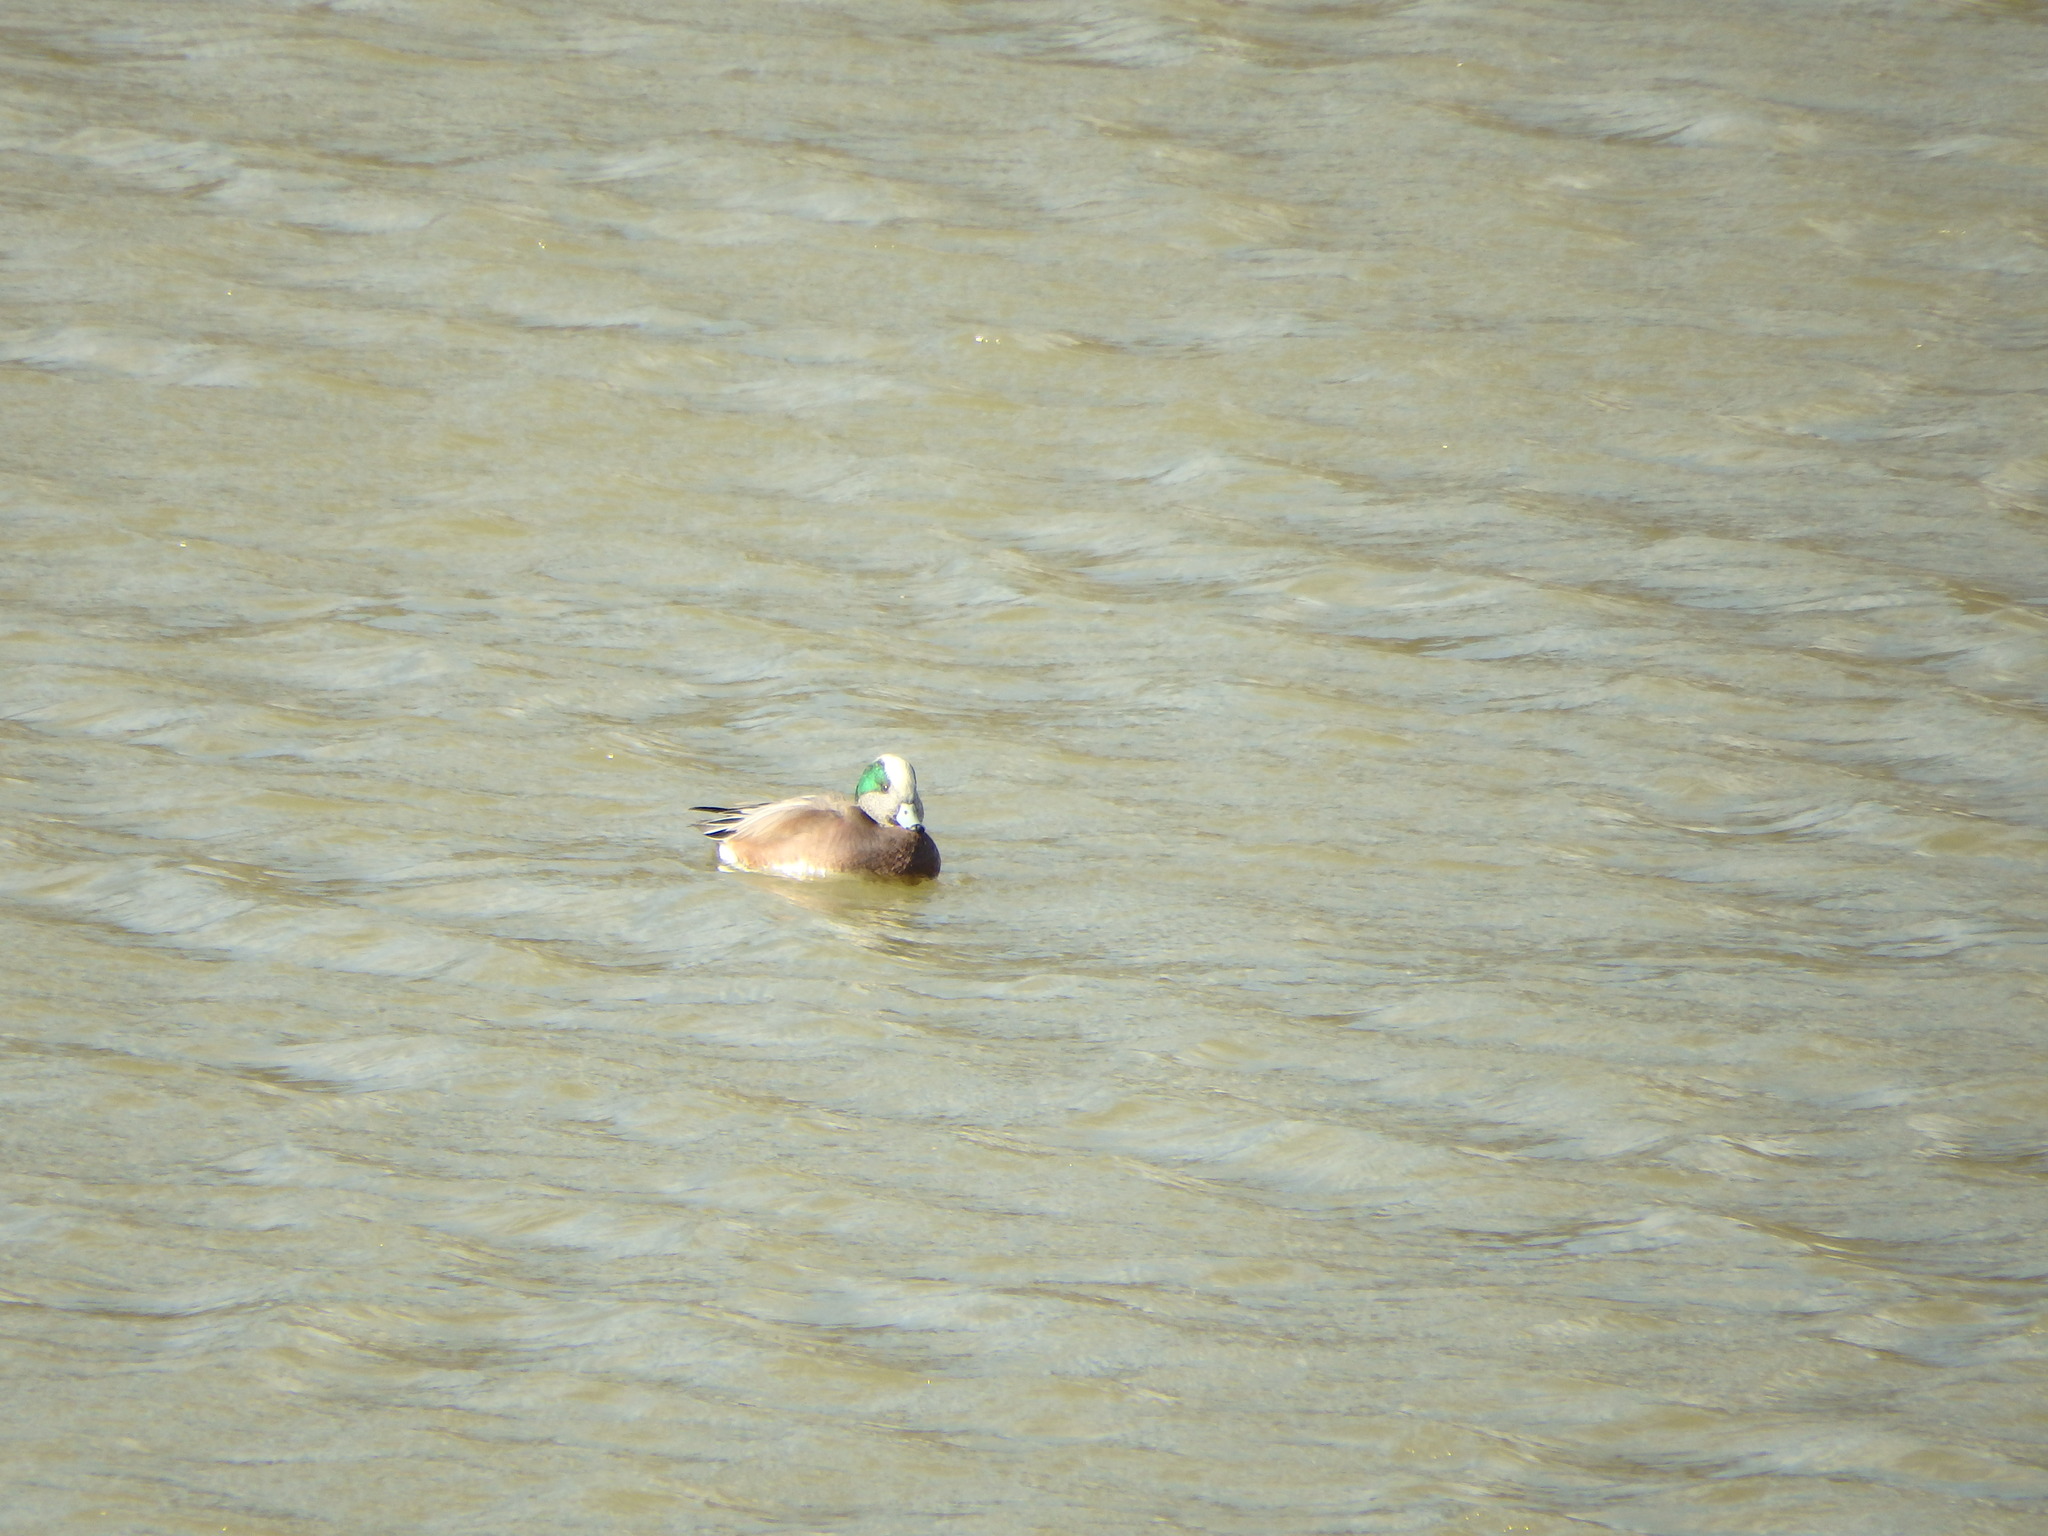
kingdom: Animalia
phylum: Chordata
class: Aves
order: Anseriformes
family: Anatidae
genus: Mareca
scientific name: Mareca americana
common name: American wigeon
